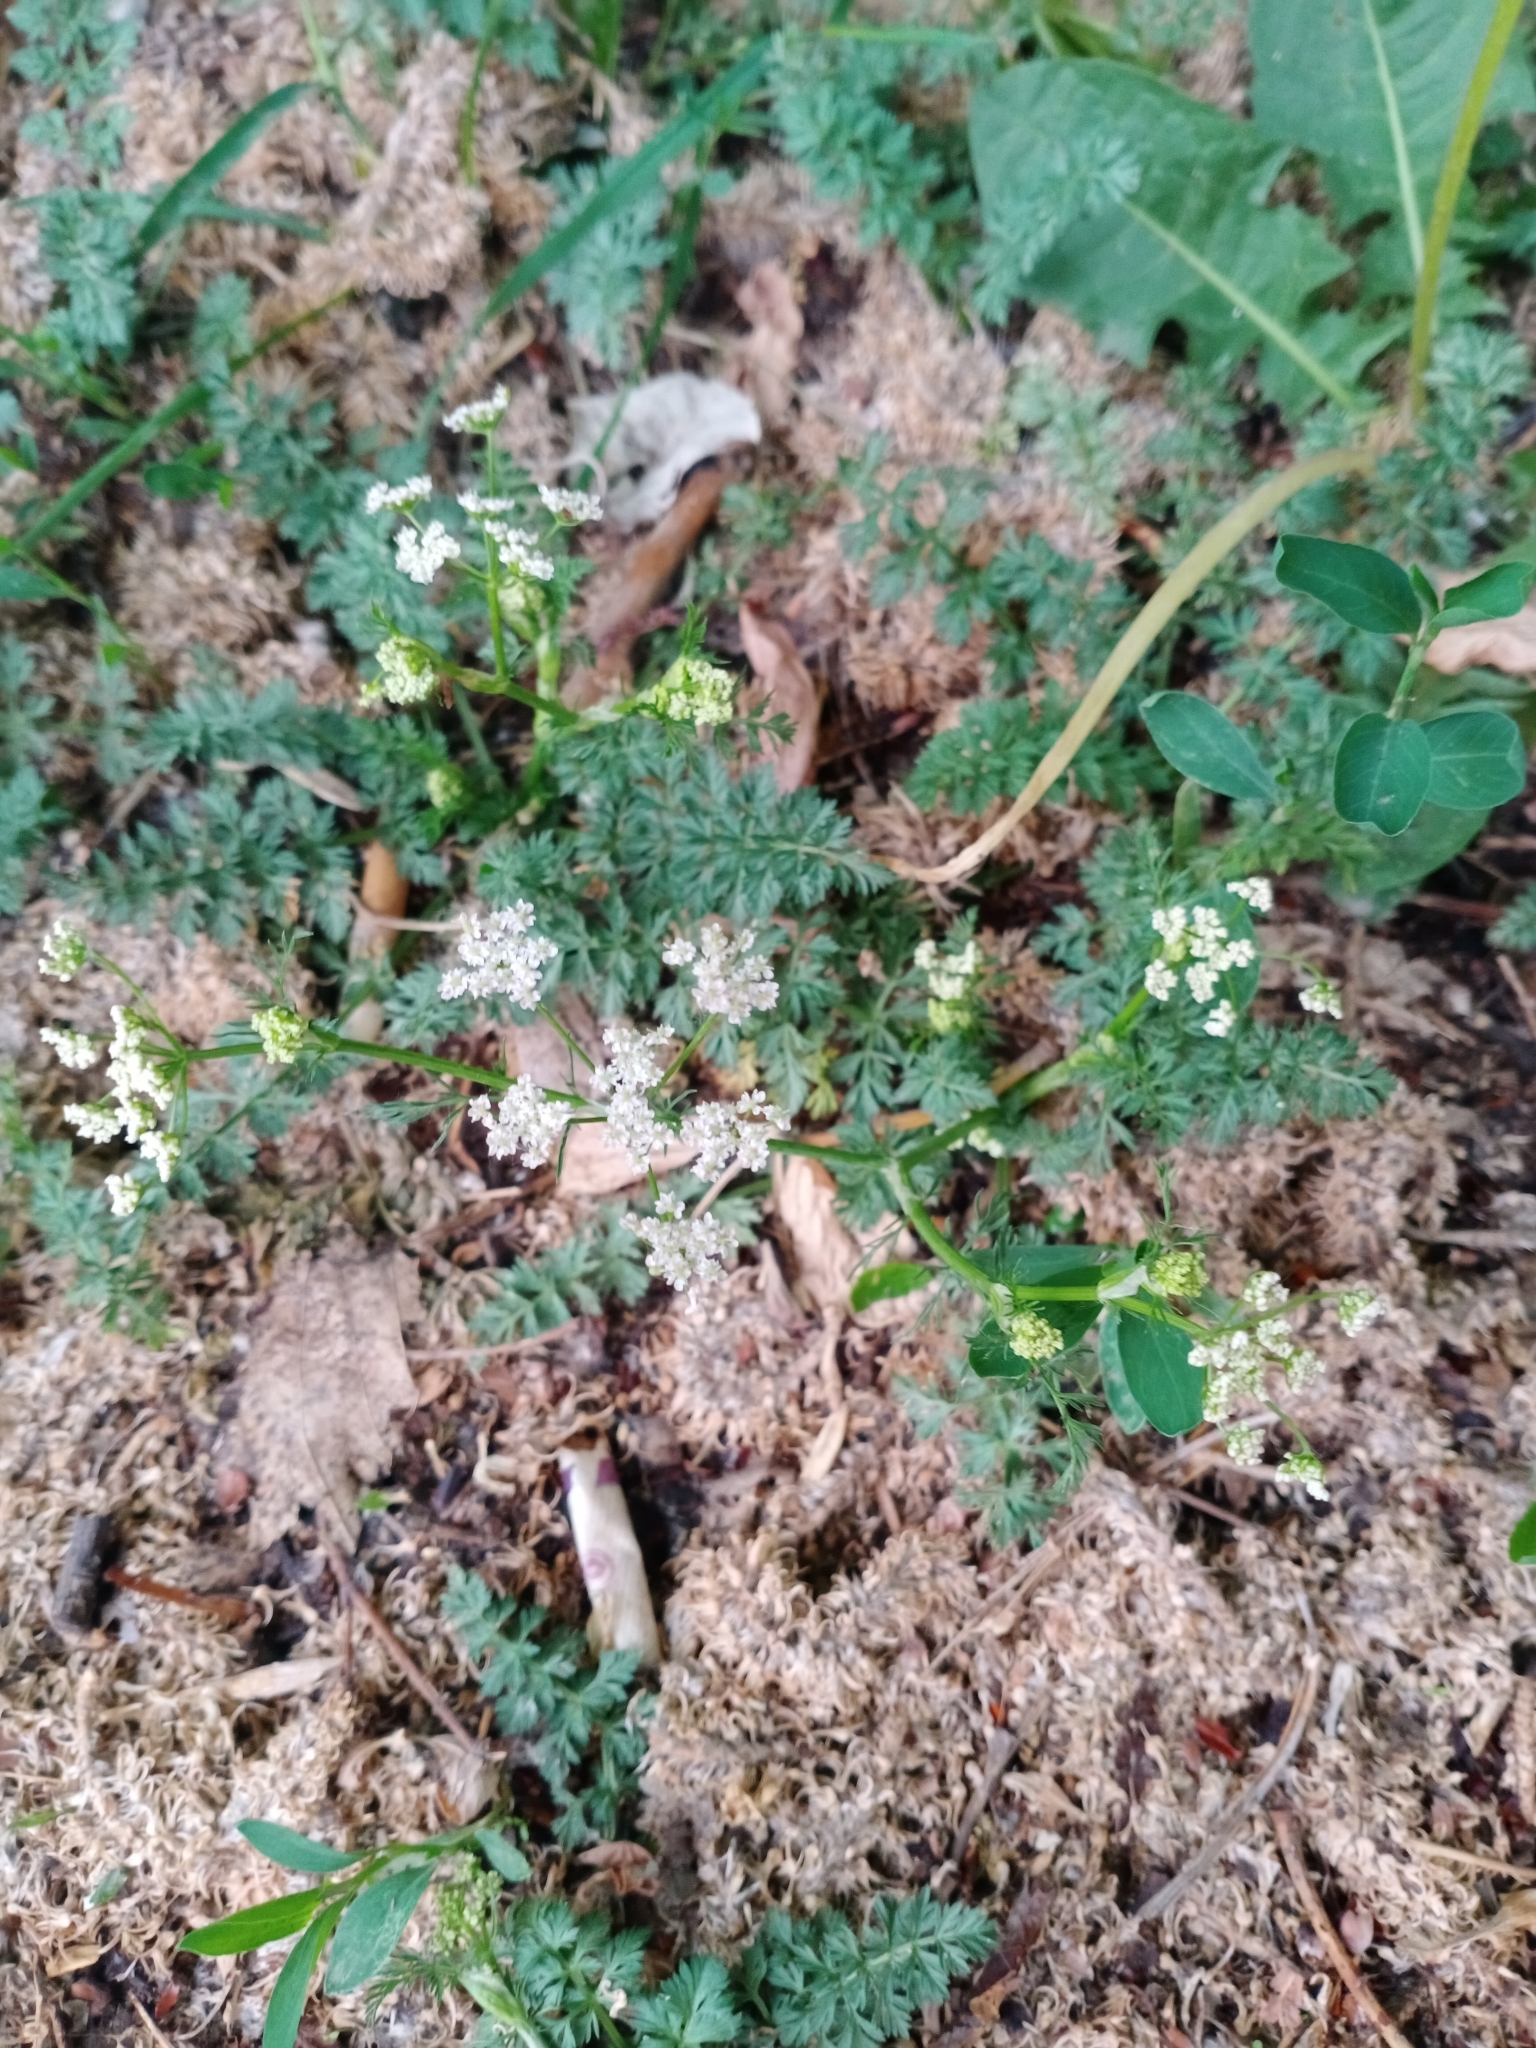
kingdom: Plantae
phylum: Tracheophyta
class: Magnoliopsida
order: Apiales
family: Apiaceae
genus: Carum
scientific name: Carum carvi
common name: Caraway
